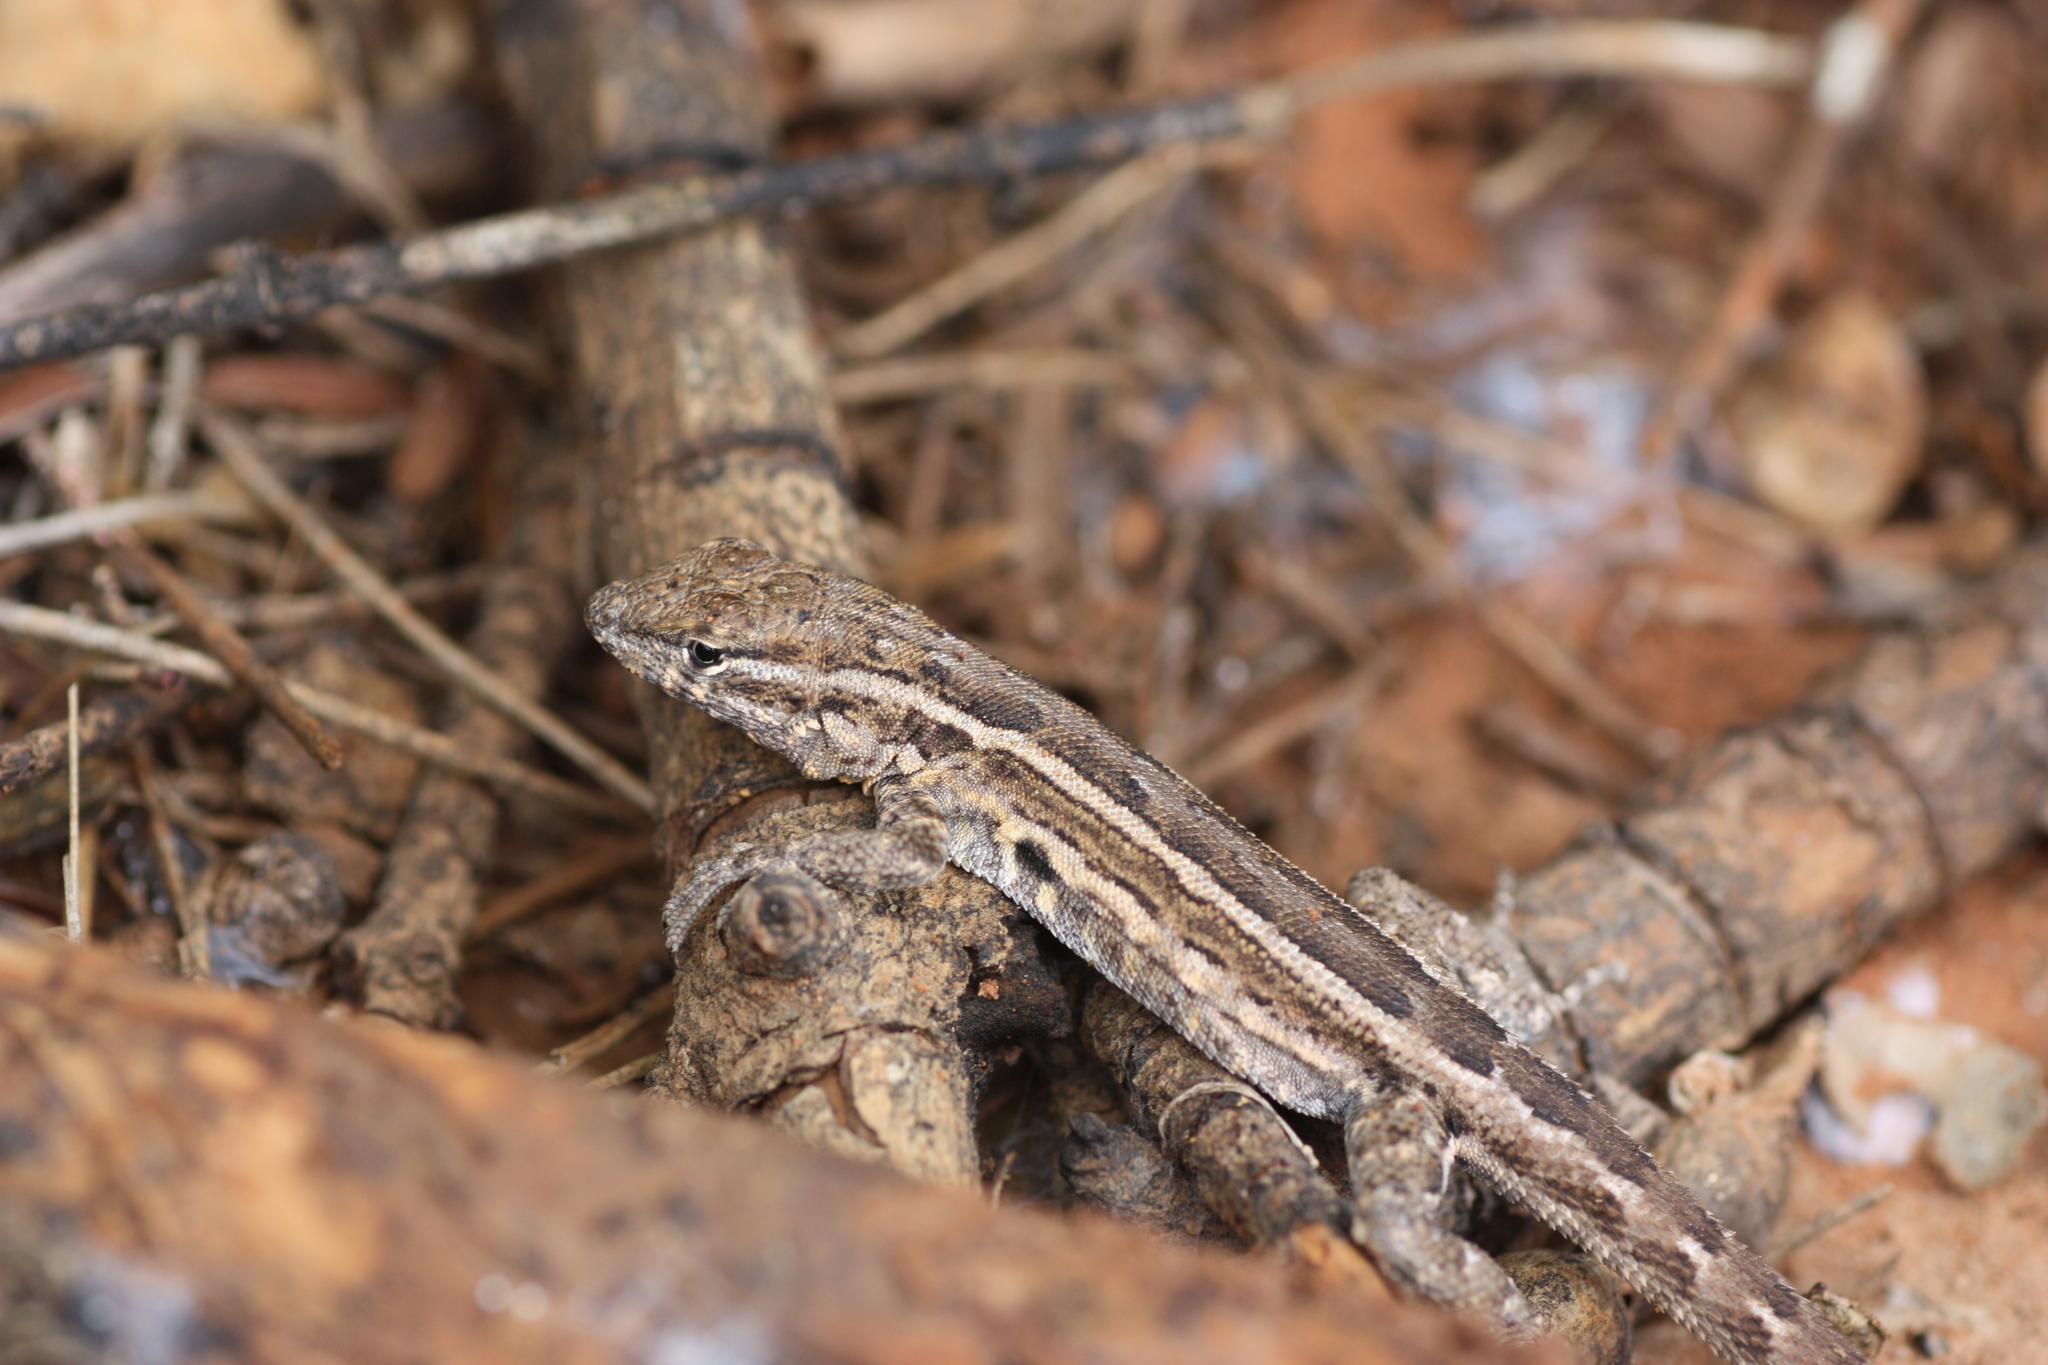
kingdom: Animalia
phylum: Chordata
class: Squamata
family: Phrynosomatidae
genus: Uta
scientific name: Uta stansburiana
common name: Side-blotched lizard
